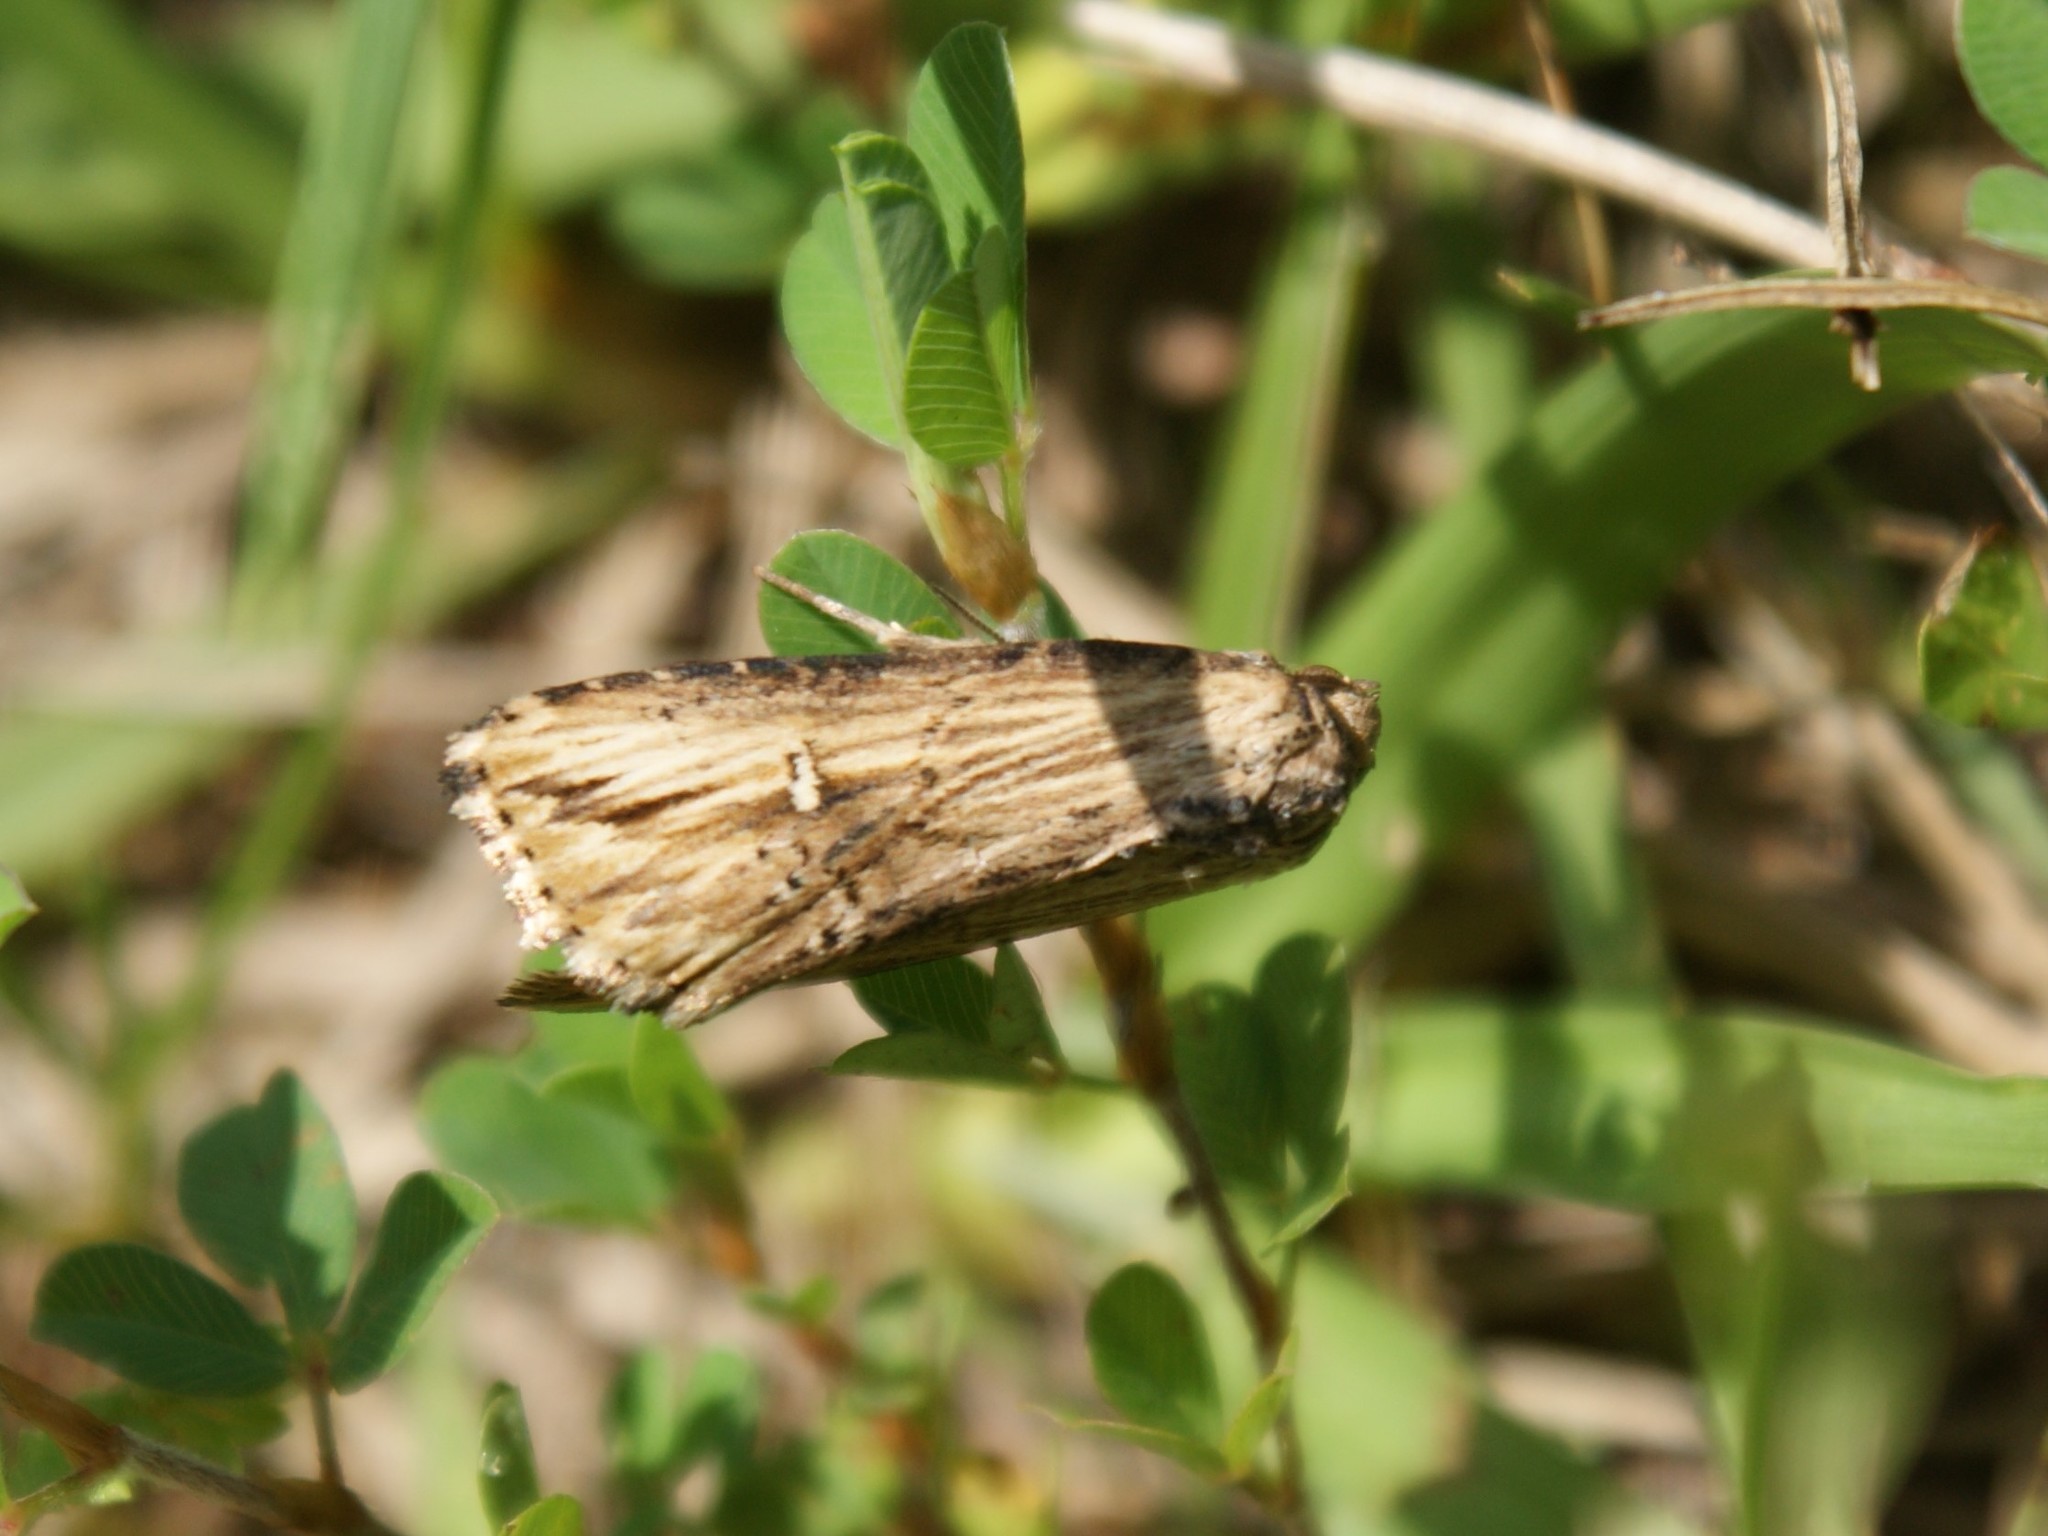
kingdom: Animalia
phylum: Arthropoda
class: Insecta
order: Lepidoptera
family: Noctuidae
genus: Crambodes
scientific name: Crambodes talidiformis
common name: Verbena moth
